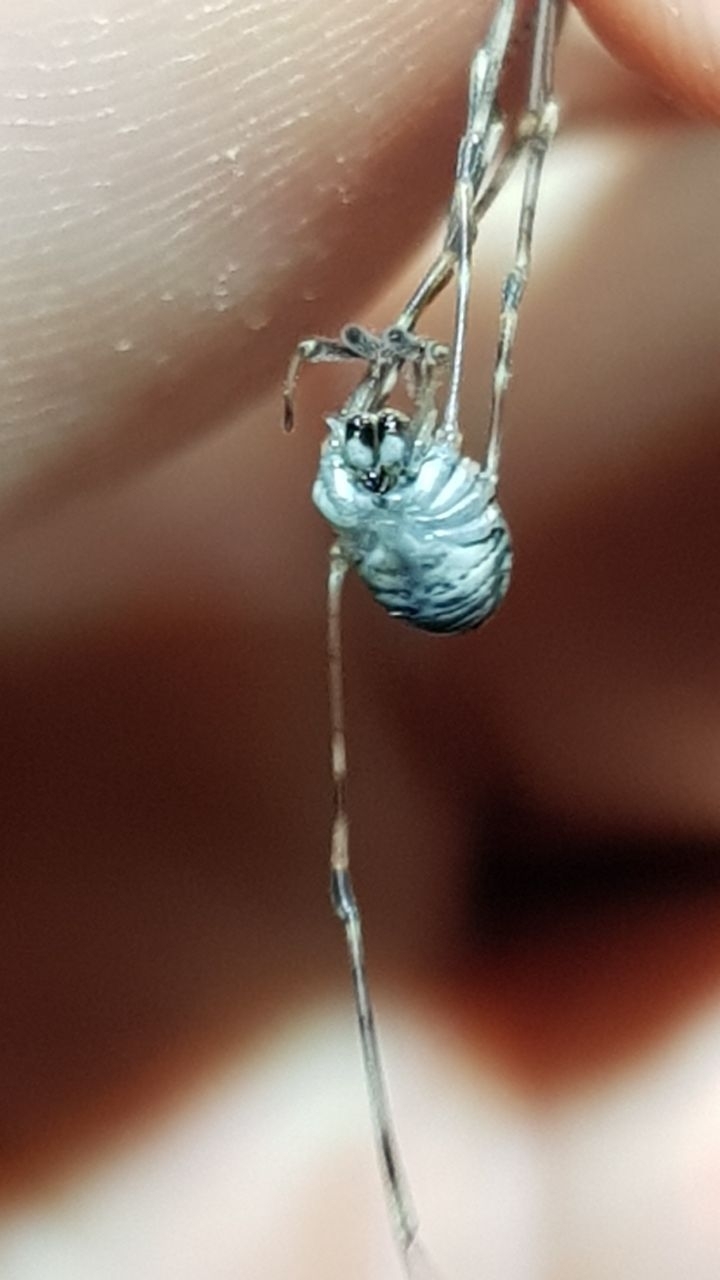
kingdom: Animalia
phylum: Arthropoda
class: Arachnida
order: Opiliones
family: Phalangiidae
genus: Dicranopalpus
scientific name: Dicranopalpus ramosus
